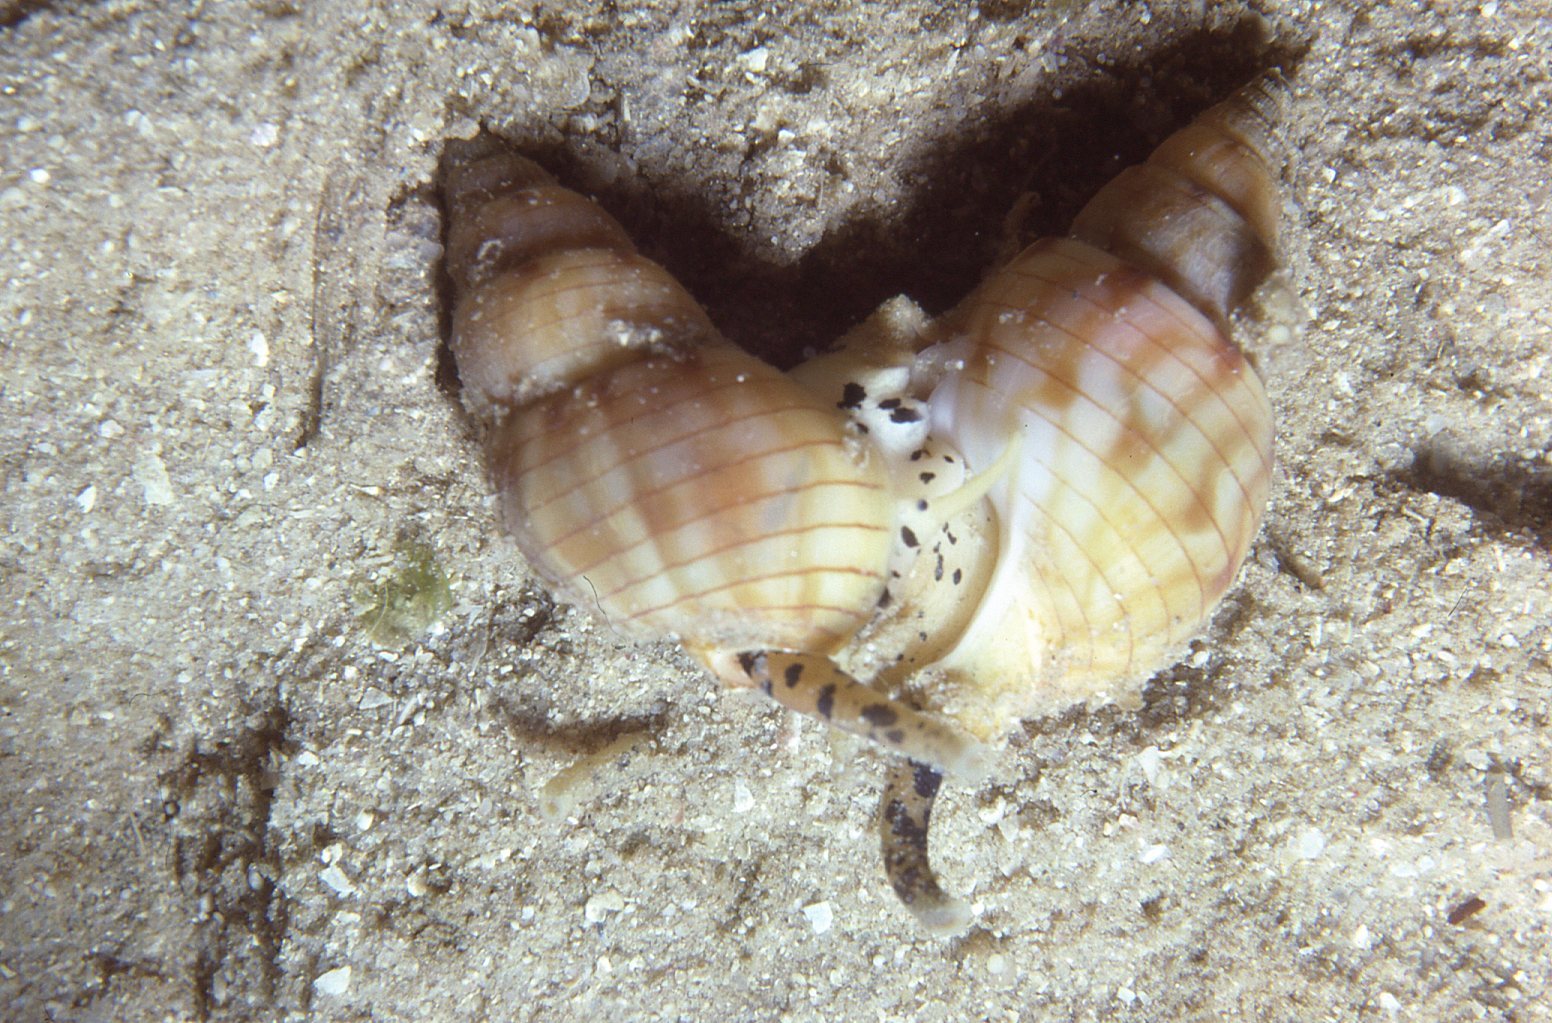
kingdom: Animalia
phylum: Mollusca
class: Gastropoda
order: Neogastropoda
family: Nassariidae
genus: Nassarius
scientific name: Nassarius particeps
